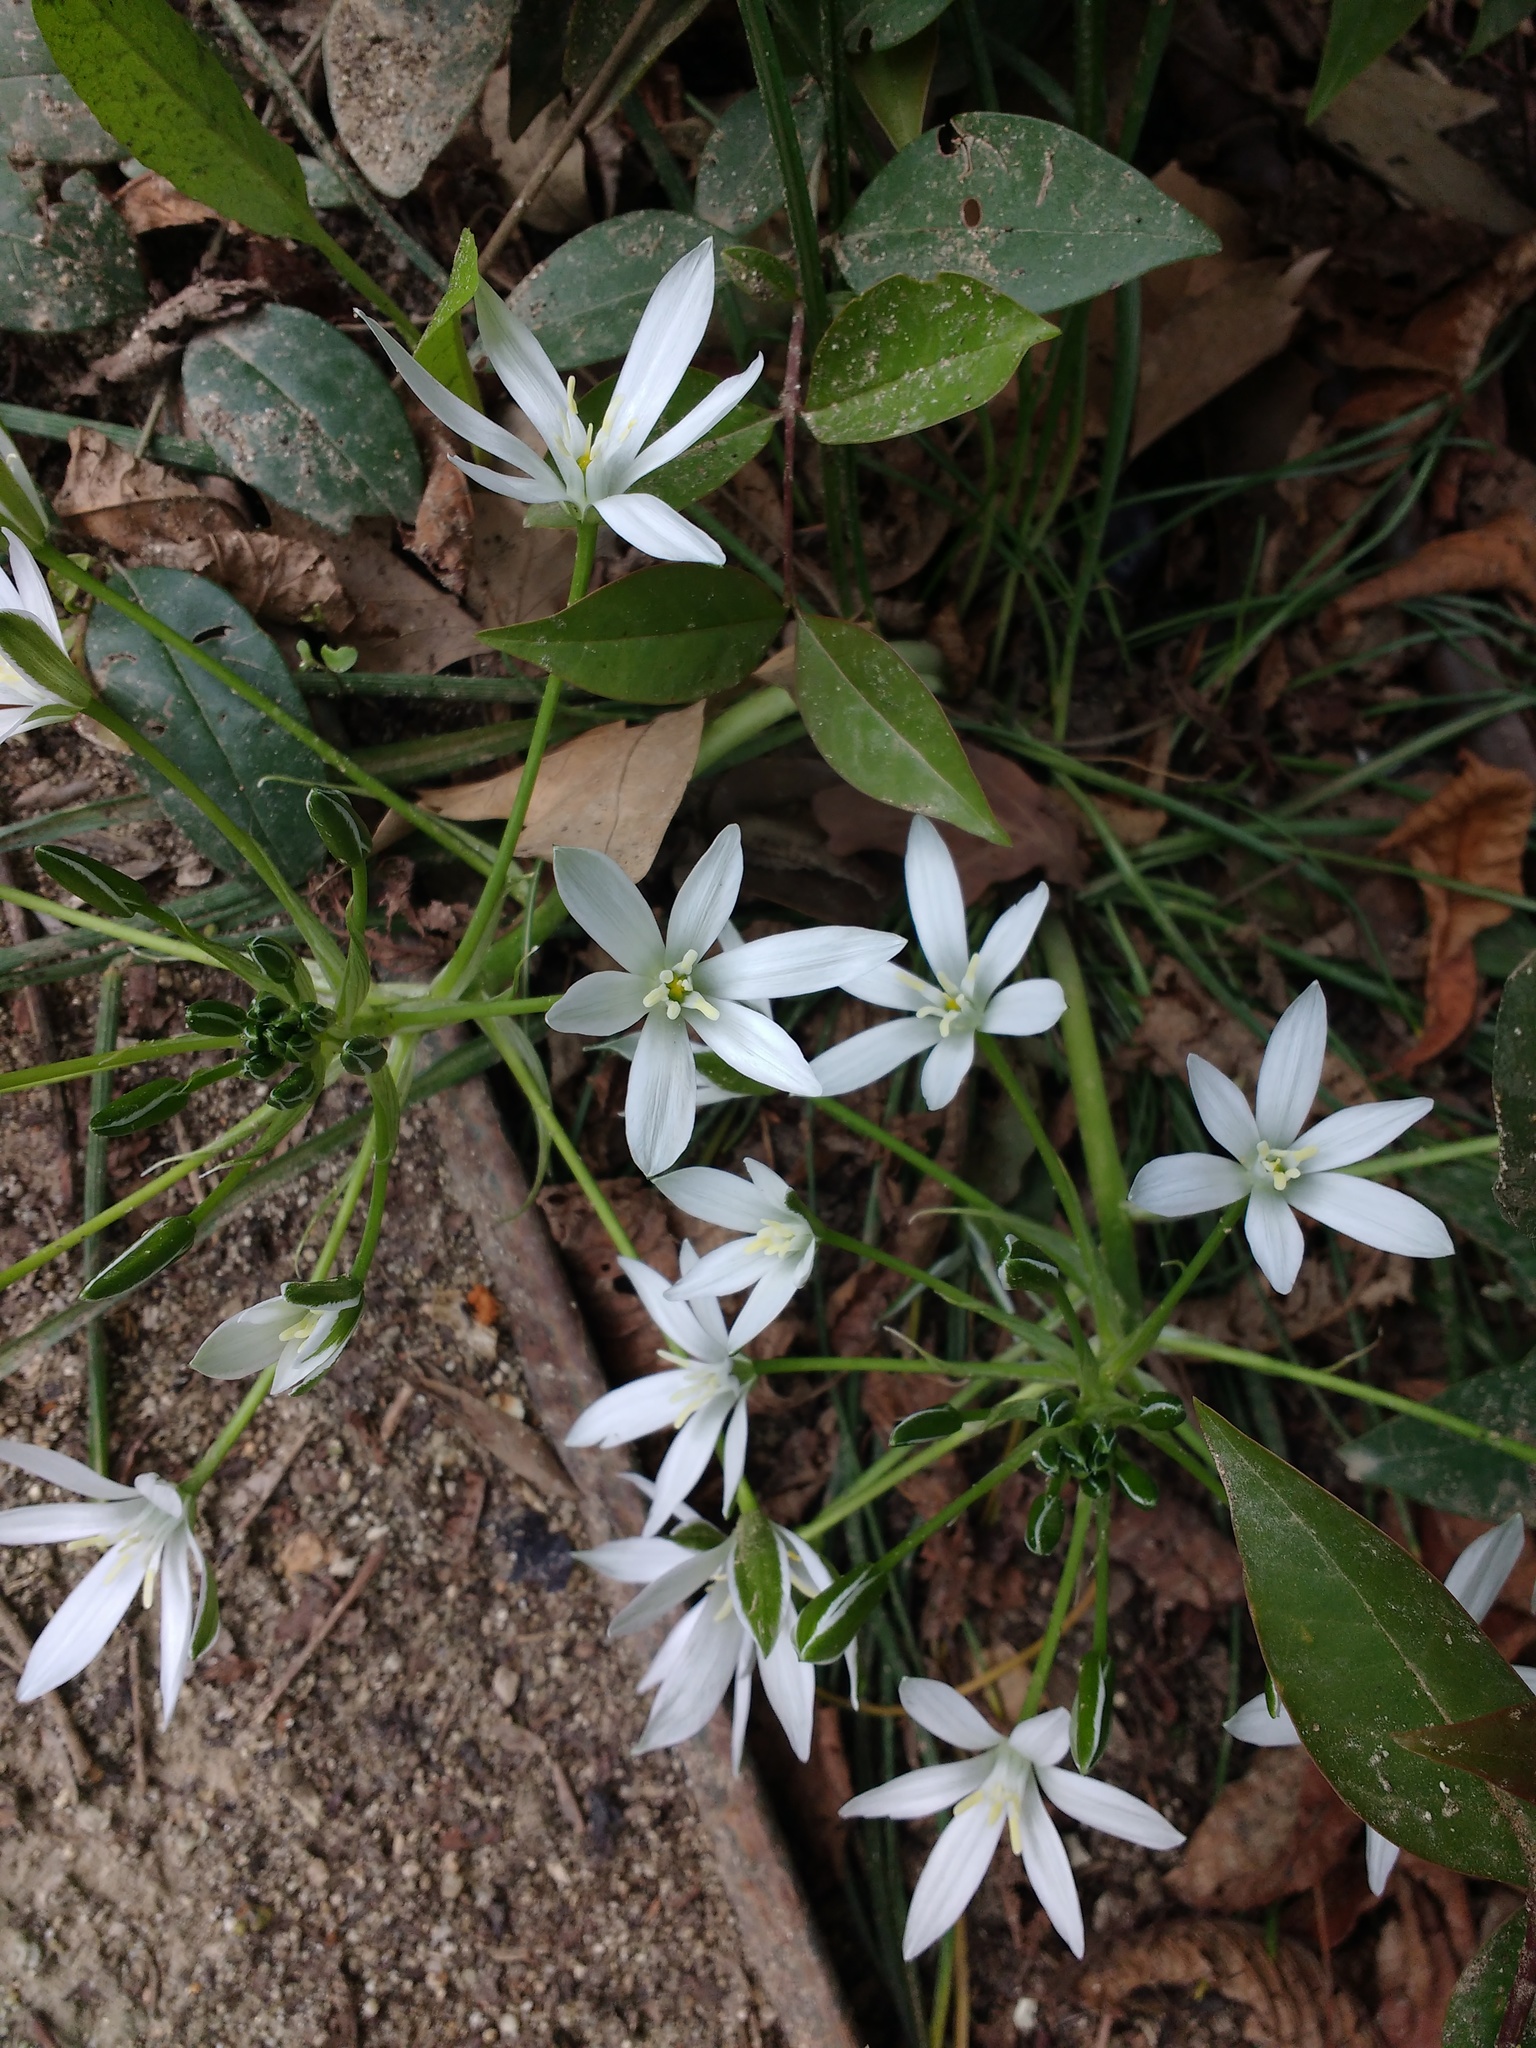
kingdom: Plantae
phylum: Tracheophyta
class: Liliopsida
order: Asparagales
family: Asparagaceae
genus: Ornithogalum
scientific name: Ornithogalum umbellatum
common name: Garden star-of-bethlehem
